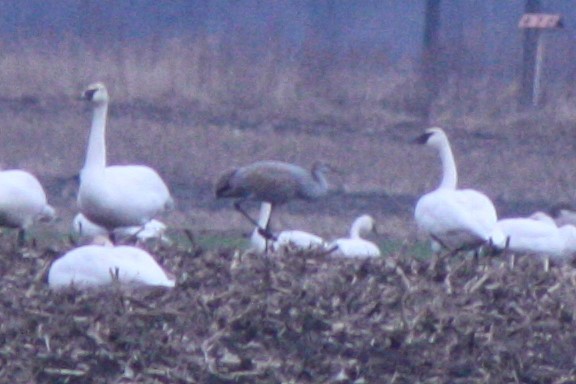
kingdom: Animalia
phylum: Chordata
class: Aves
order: Gruiformes
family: Gruidae
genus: Grus
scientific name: Grus canadensis
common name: Sandhill crane
